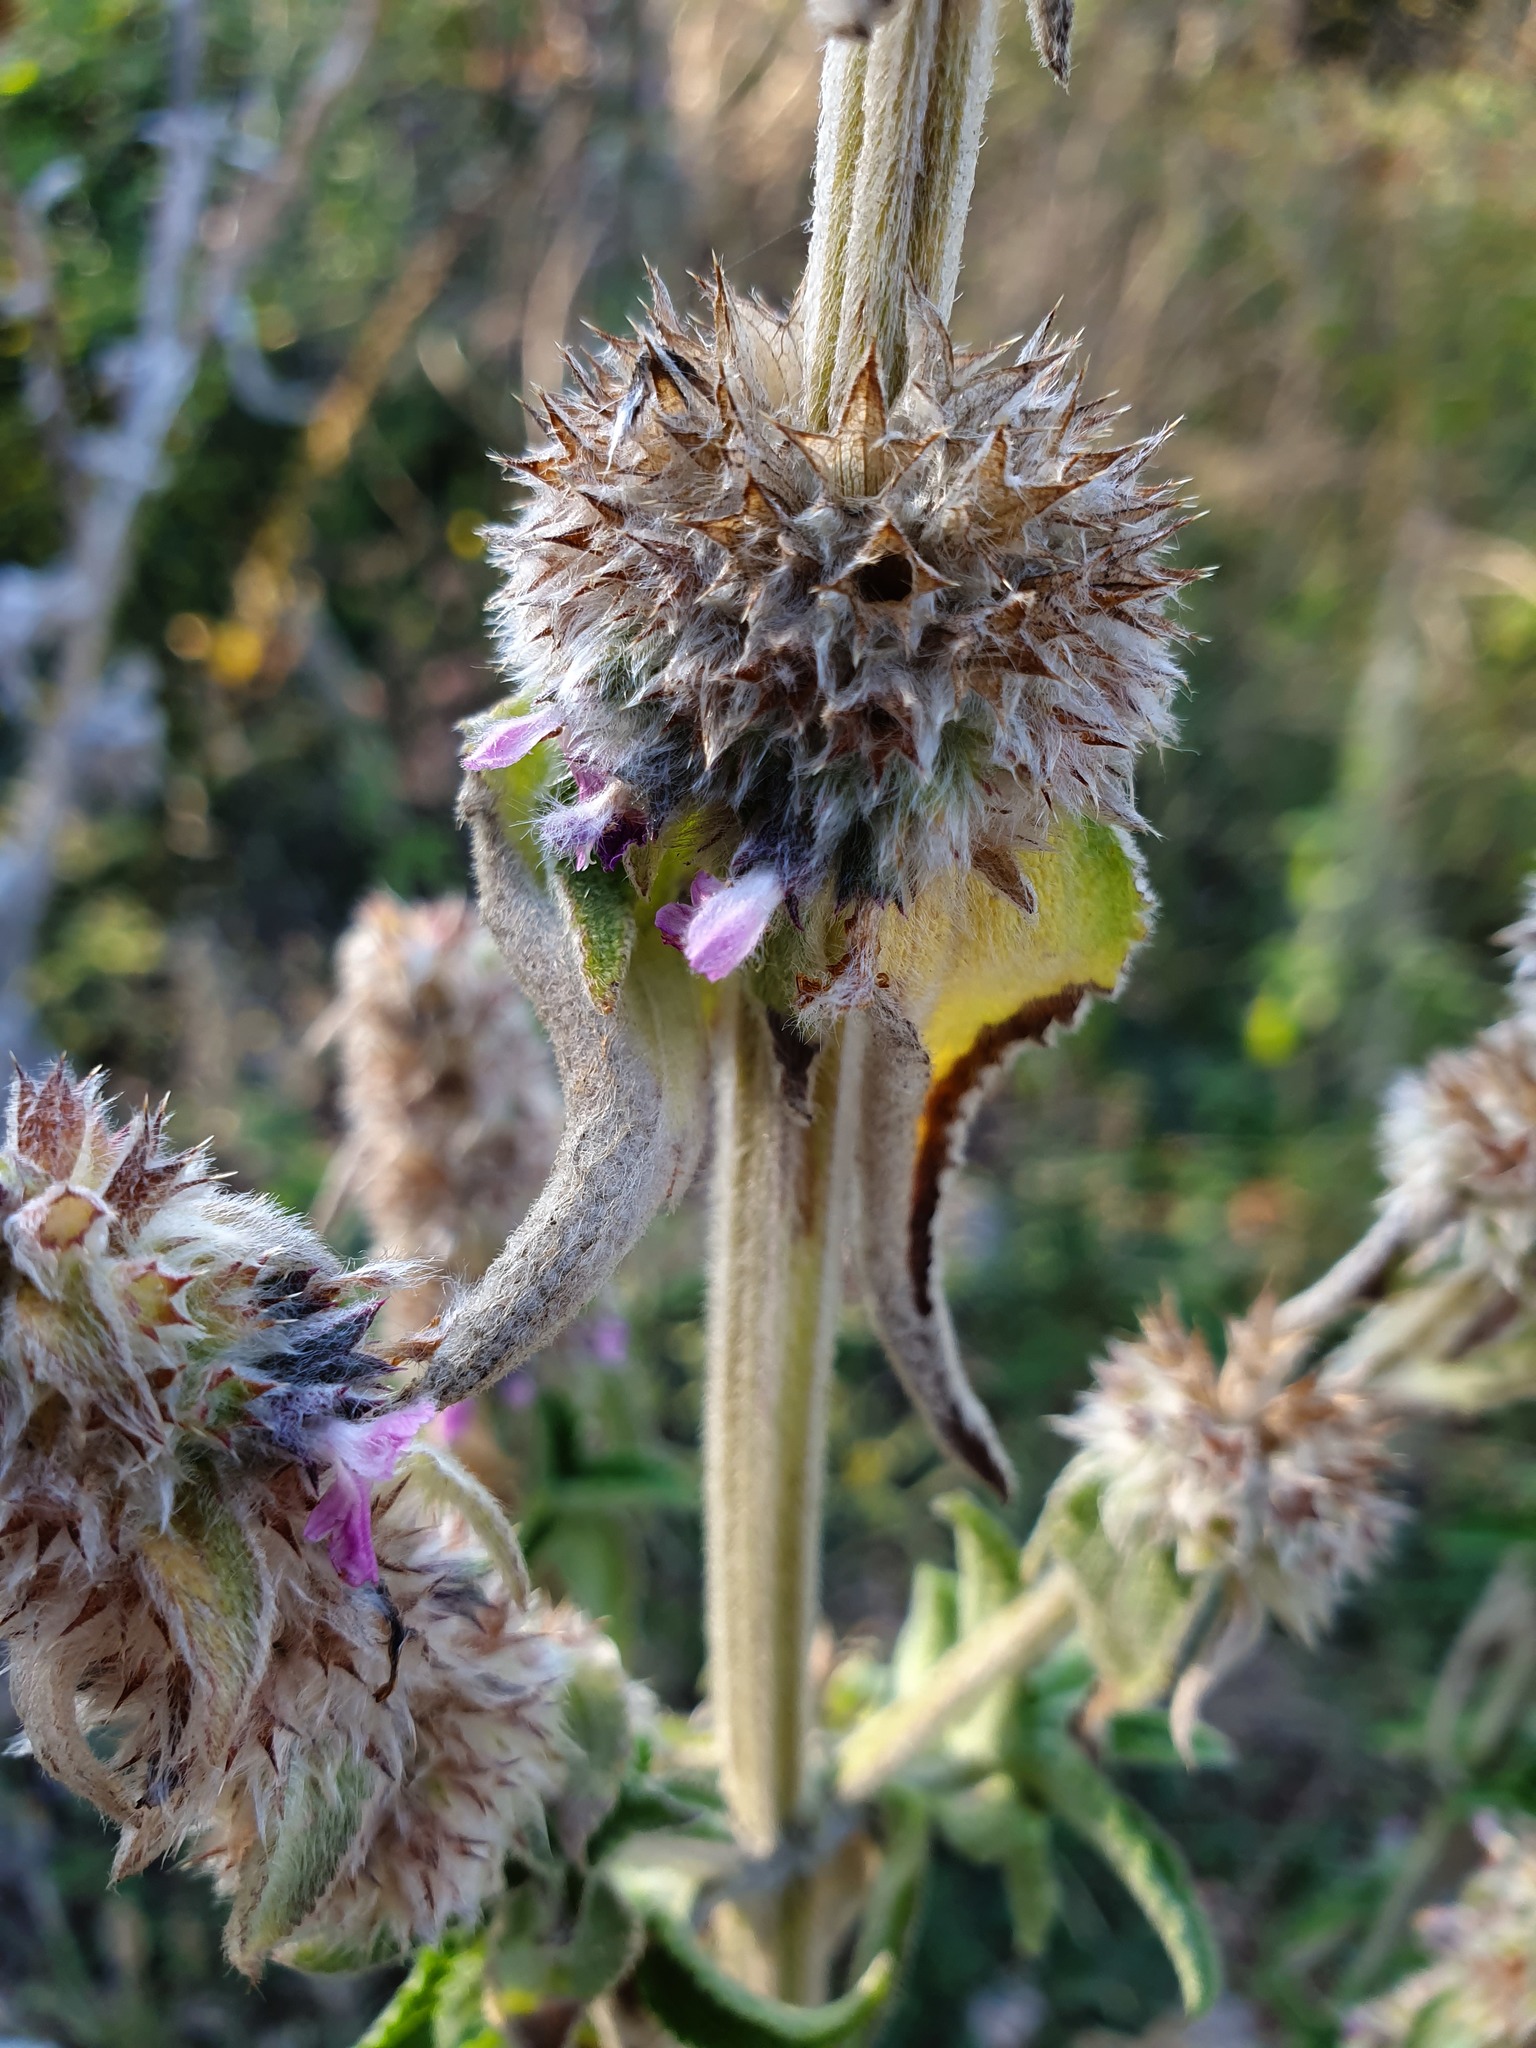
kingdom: Plantae
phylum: Tracheophyta
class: Magnoliopsida
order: Lamiales
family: Lamiaceae
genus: Stachys
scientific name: Stachys germanica
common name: Downy woundwort
